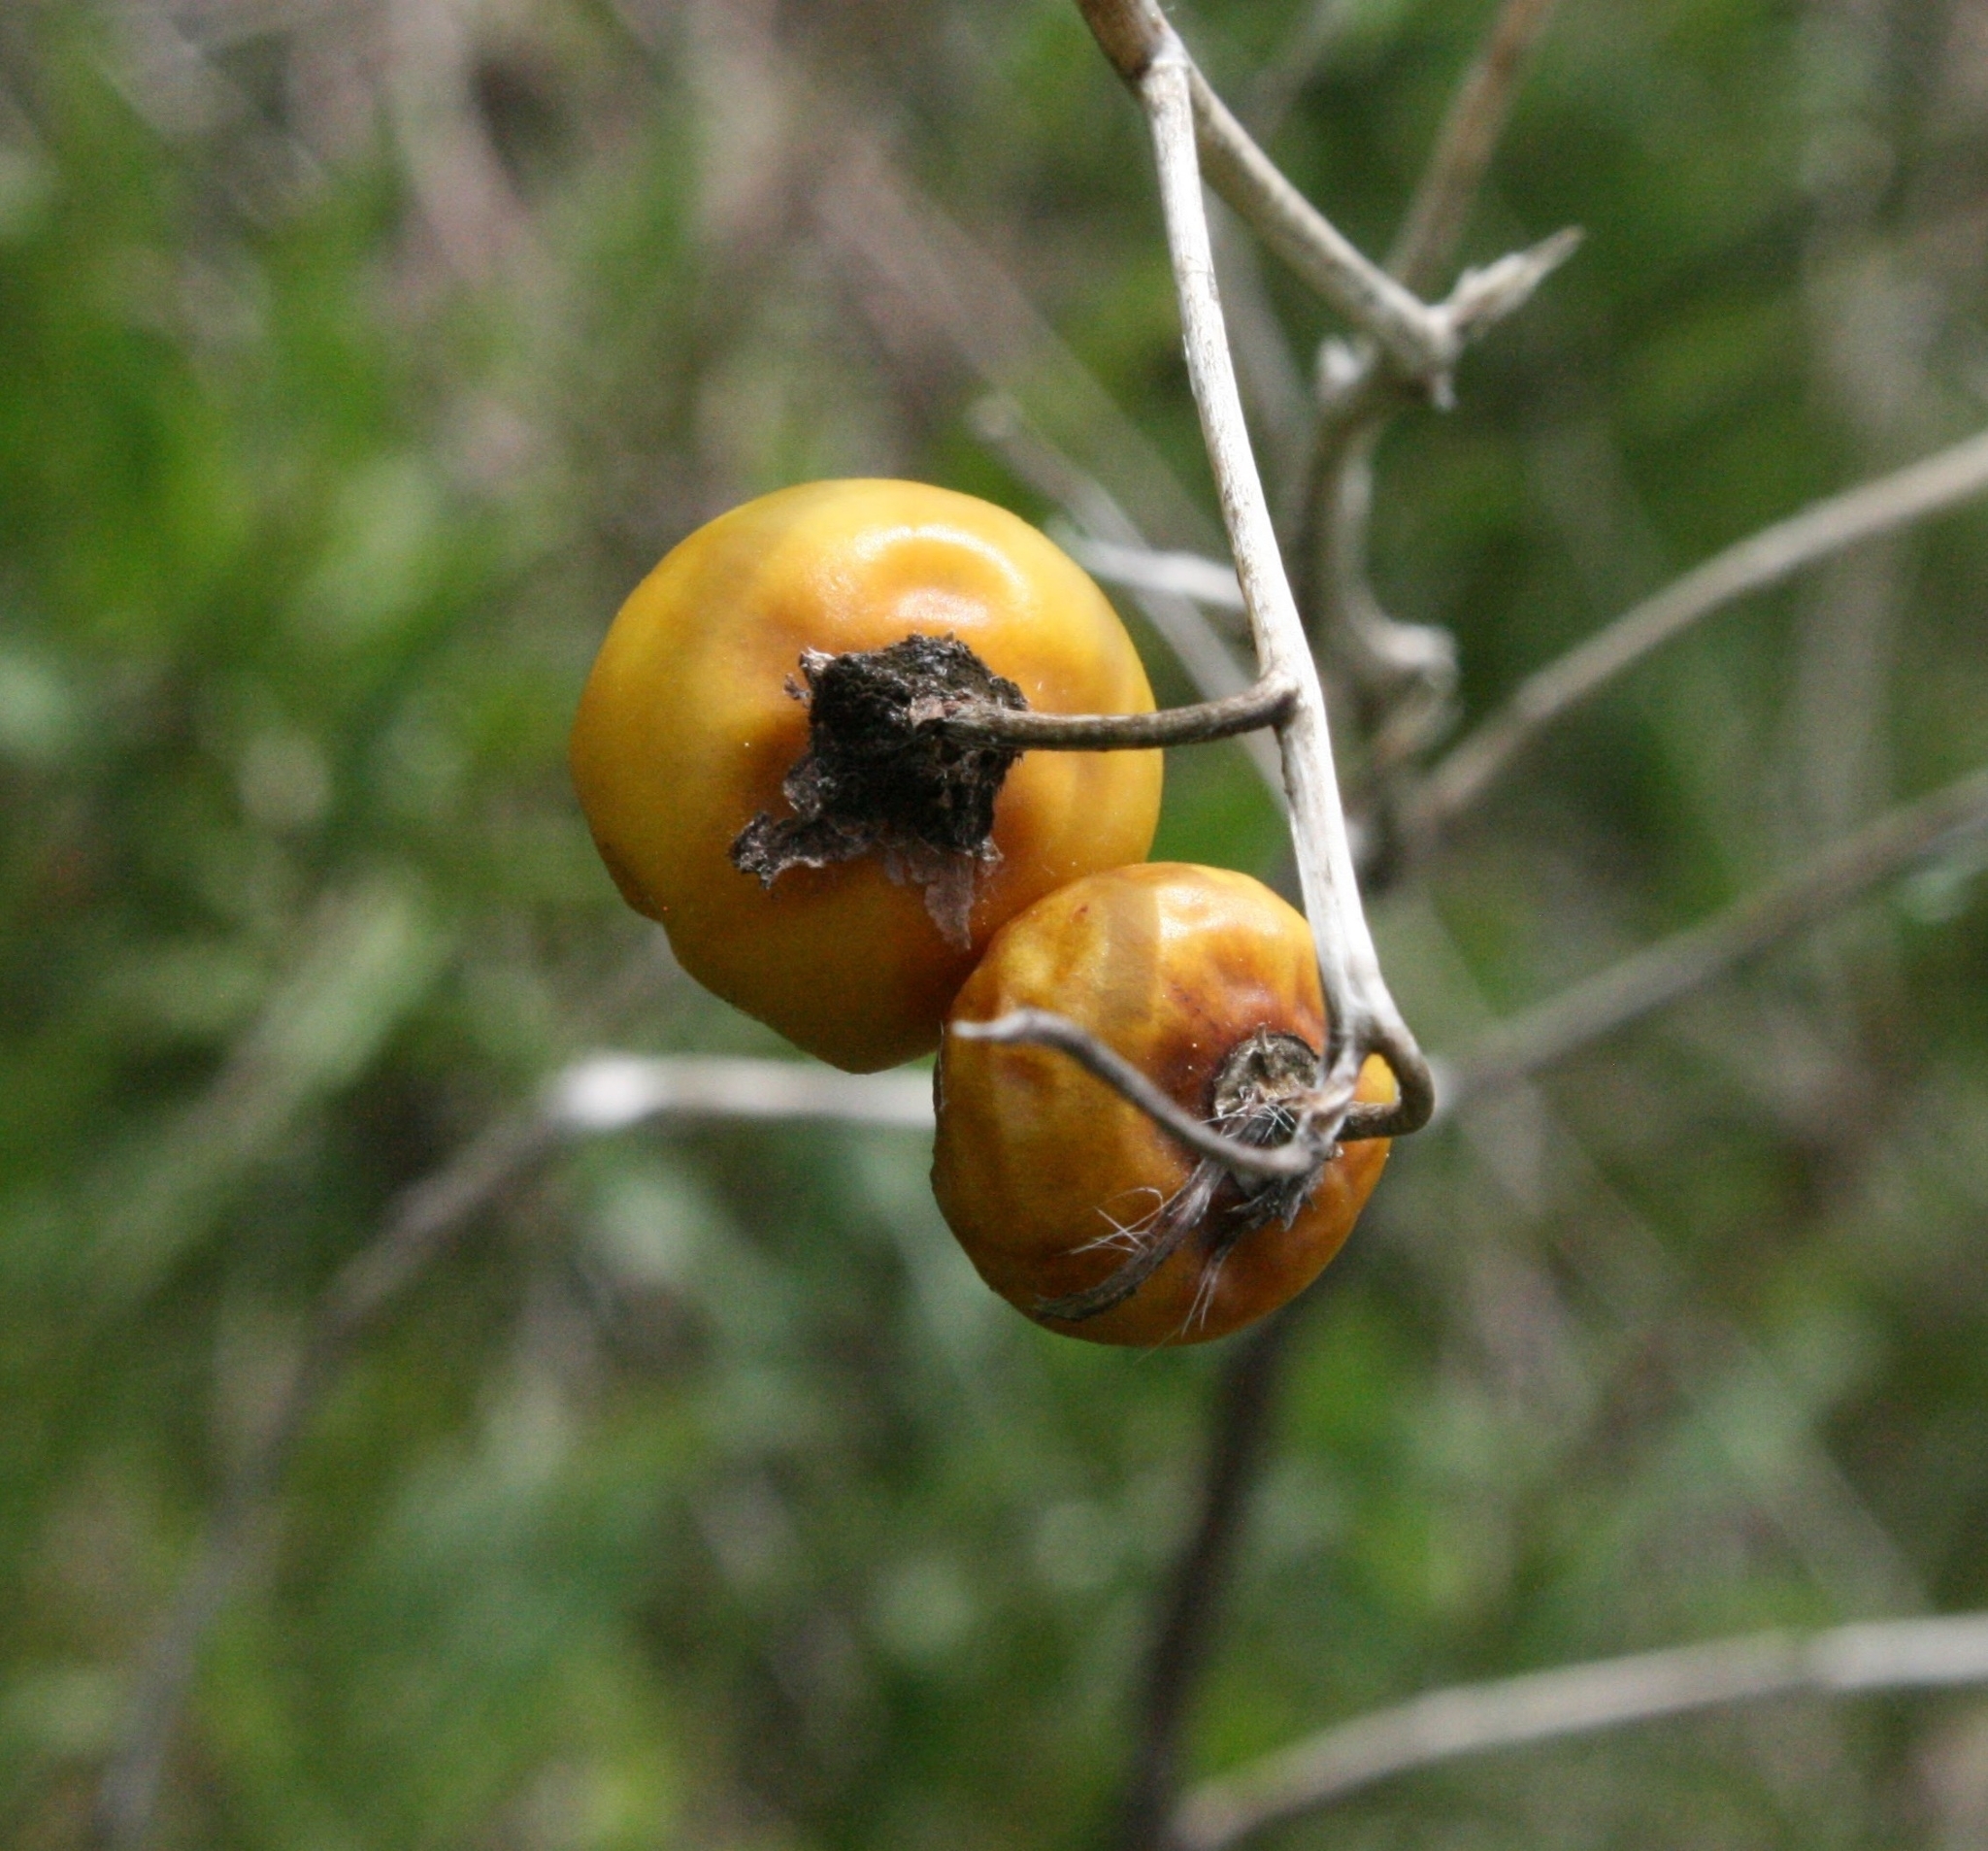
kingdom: Plantae
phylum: Tracheophyta
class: Magnoliopsida
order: Solanales
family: Solanaceae
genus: Solanum
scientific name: Solanum carolinense
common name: Horse-nettle
